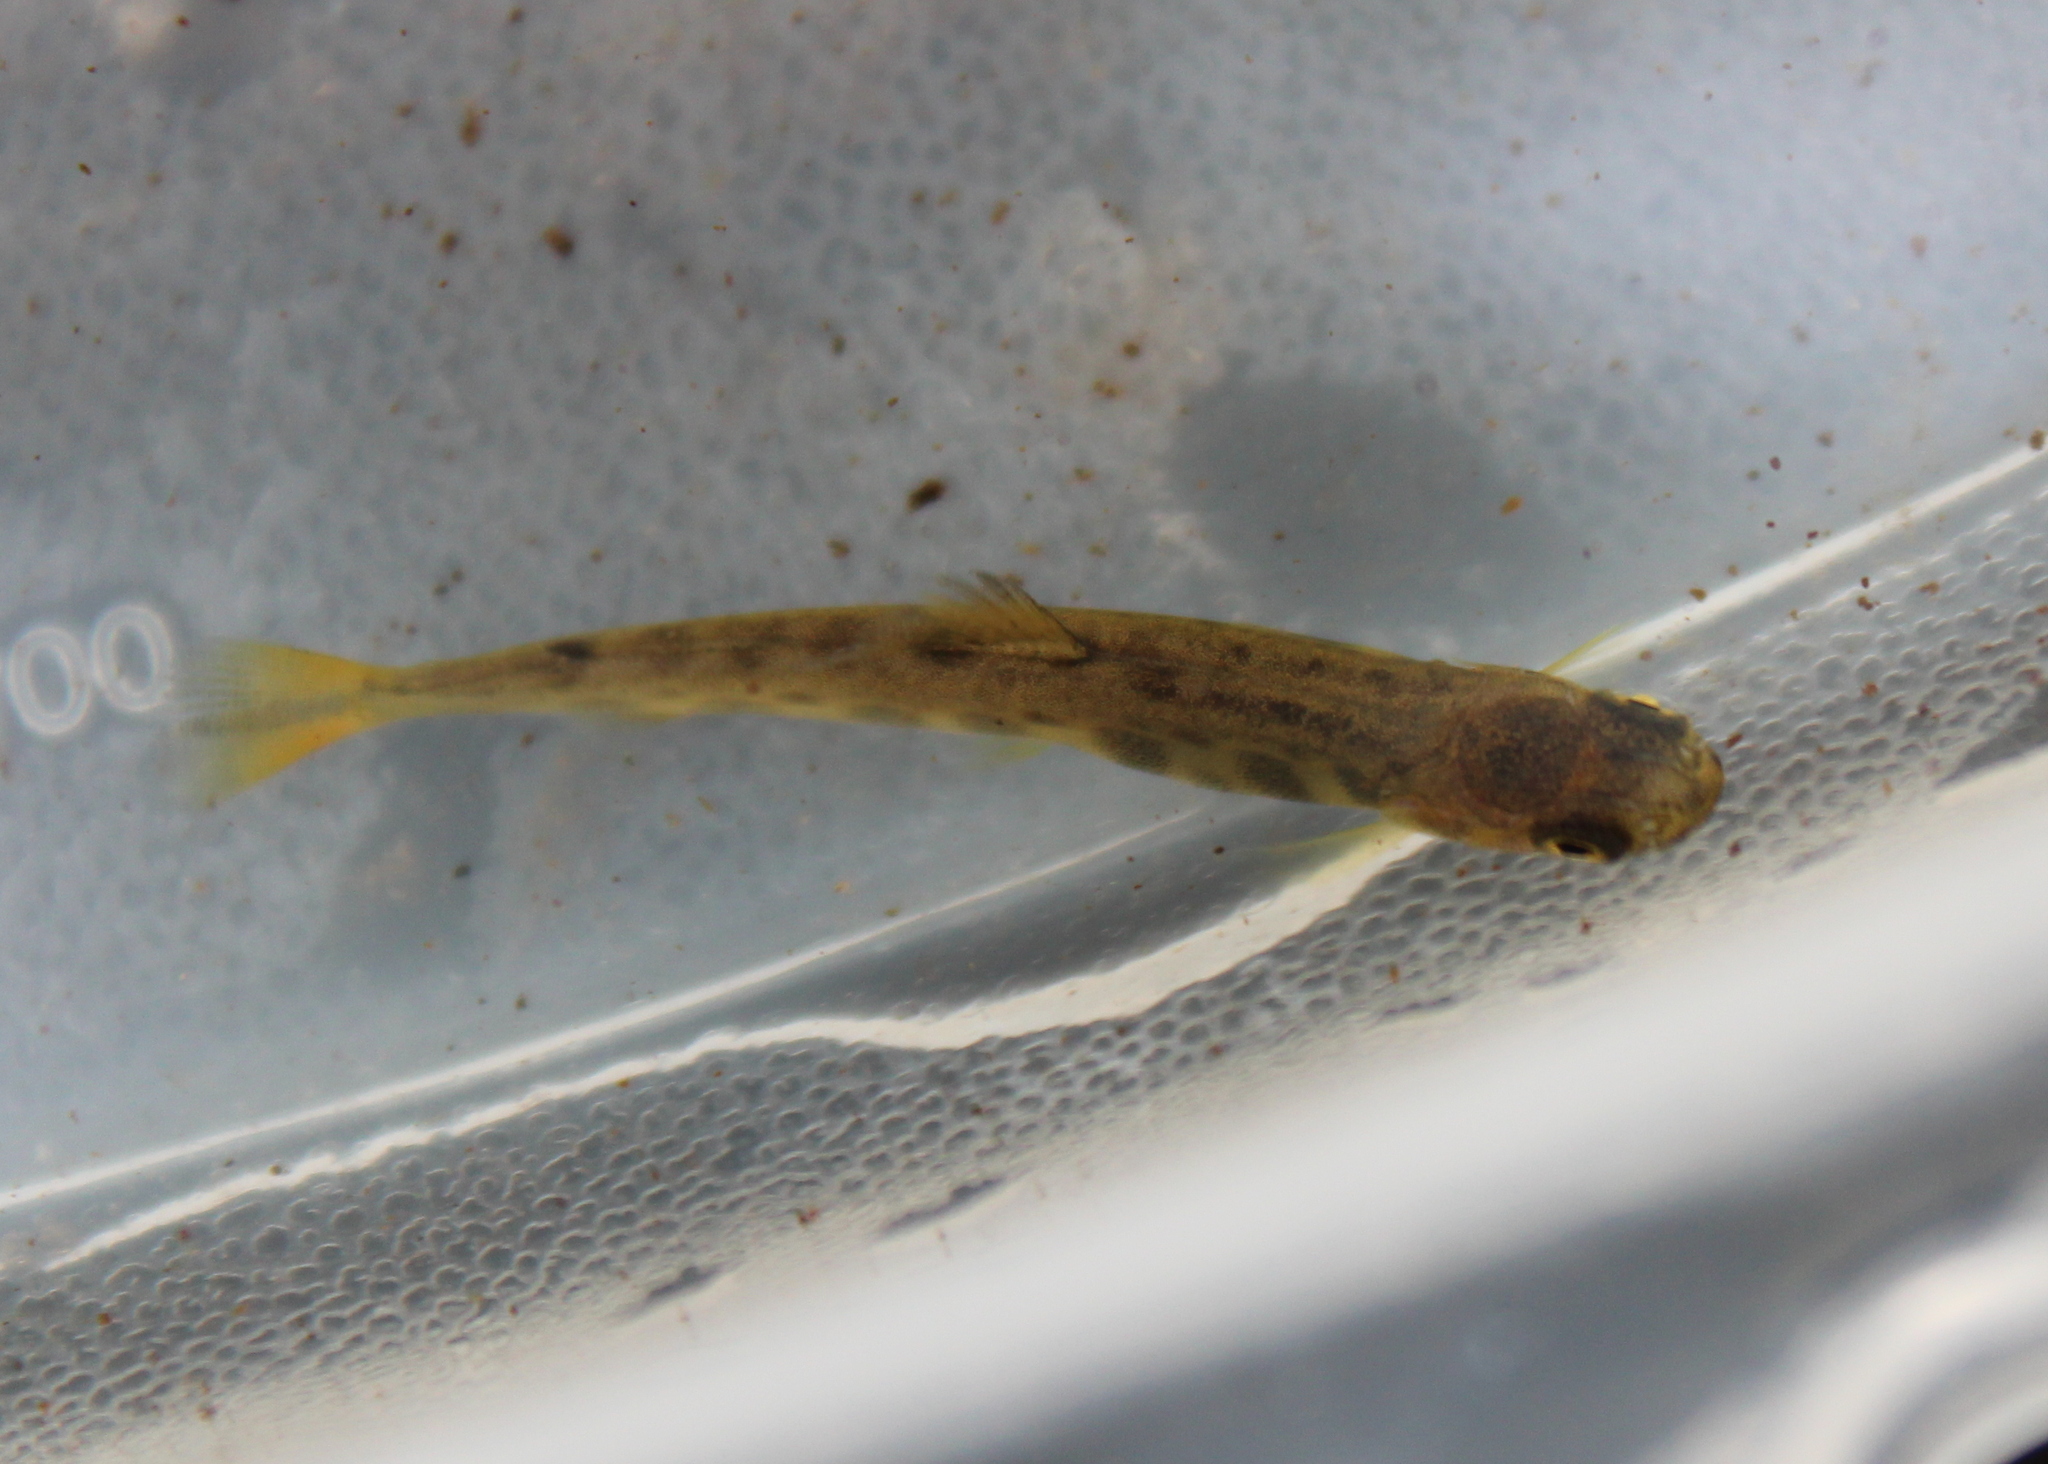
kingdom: Animalia
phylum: Chordata
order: Salmoniformes
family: Salmonidae
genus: Salvelinus
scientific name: Salvelinus fontinalis
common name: Brook trout
